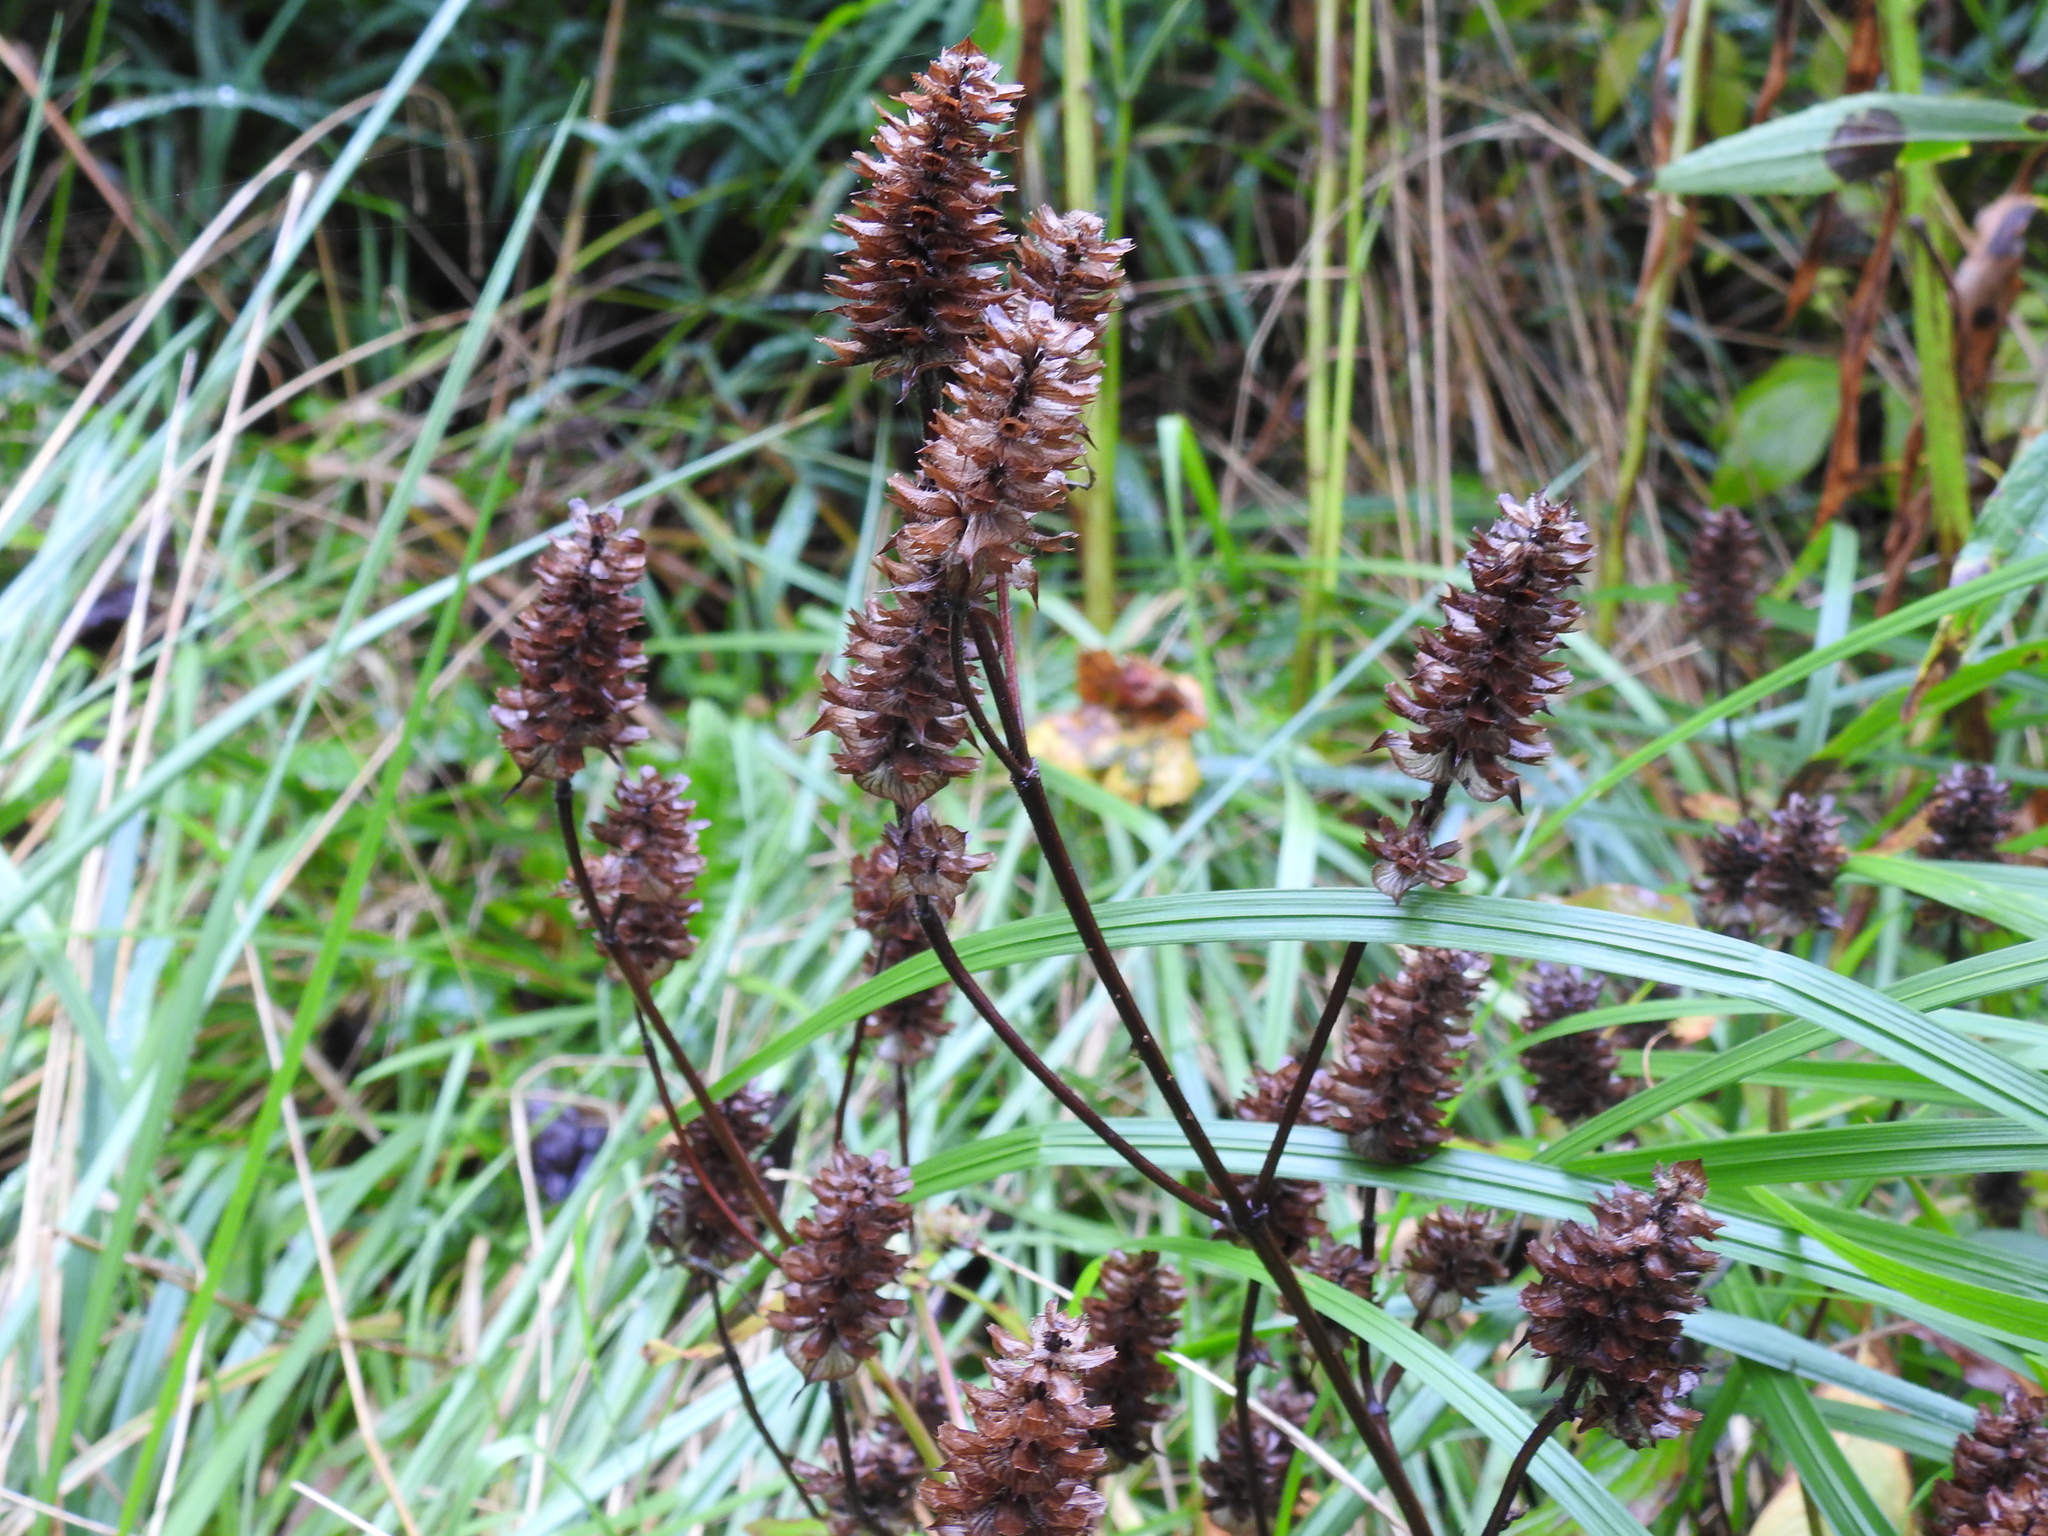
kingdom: Plantae
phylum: Tracheophyta
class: Magnoliopsida
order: Lamiales
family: Lamiaceae
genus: Prunella
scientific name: Prunella vulgaris
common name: Heal-all
